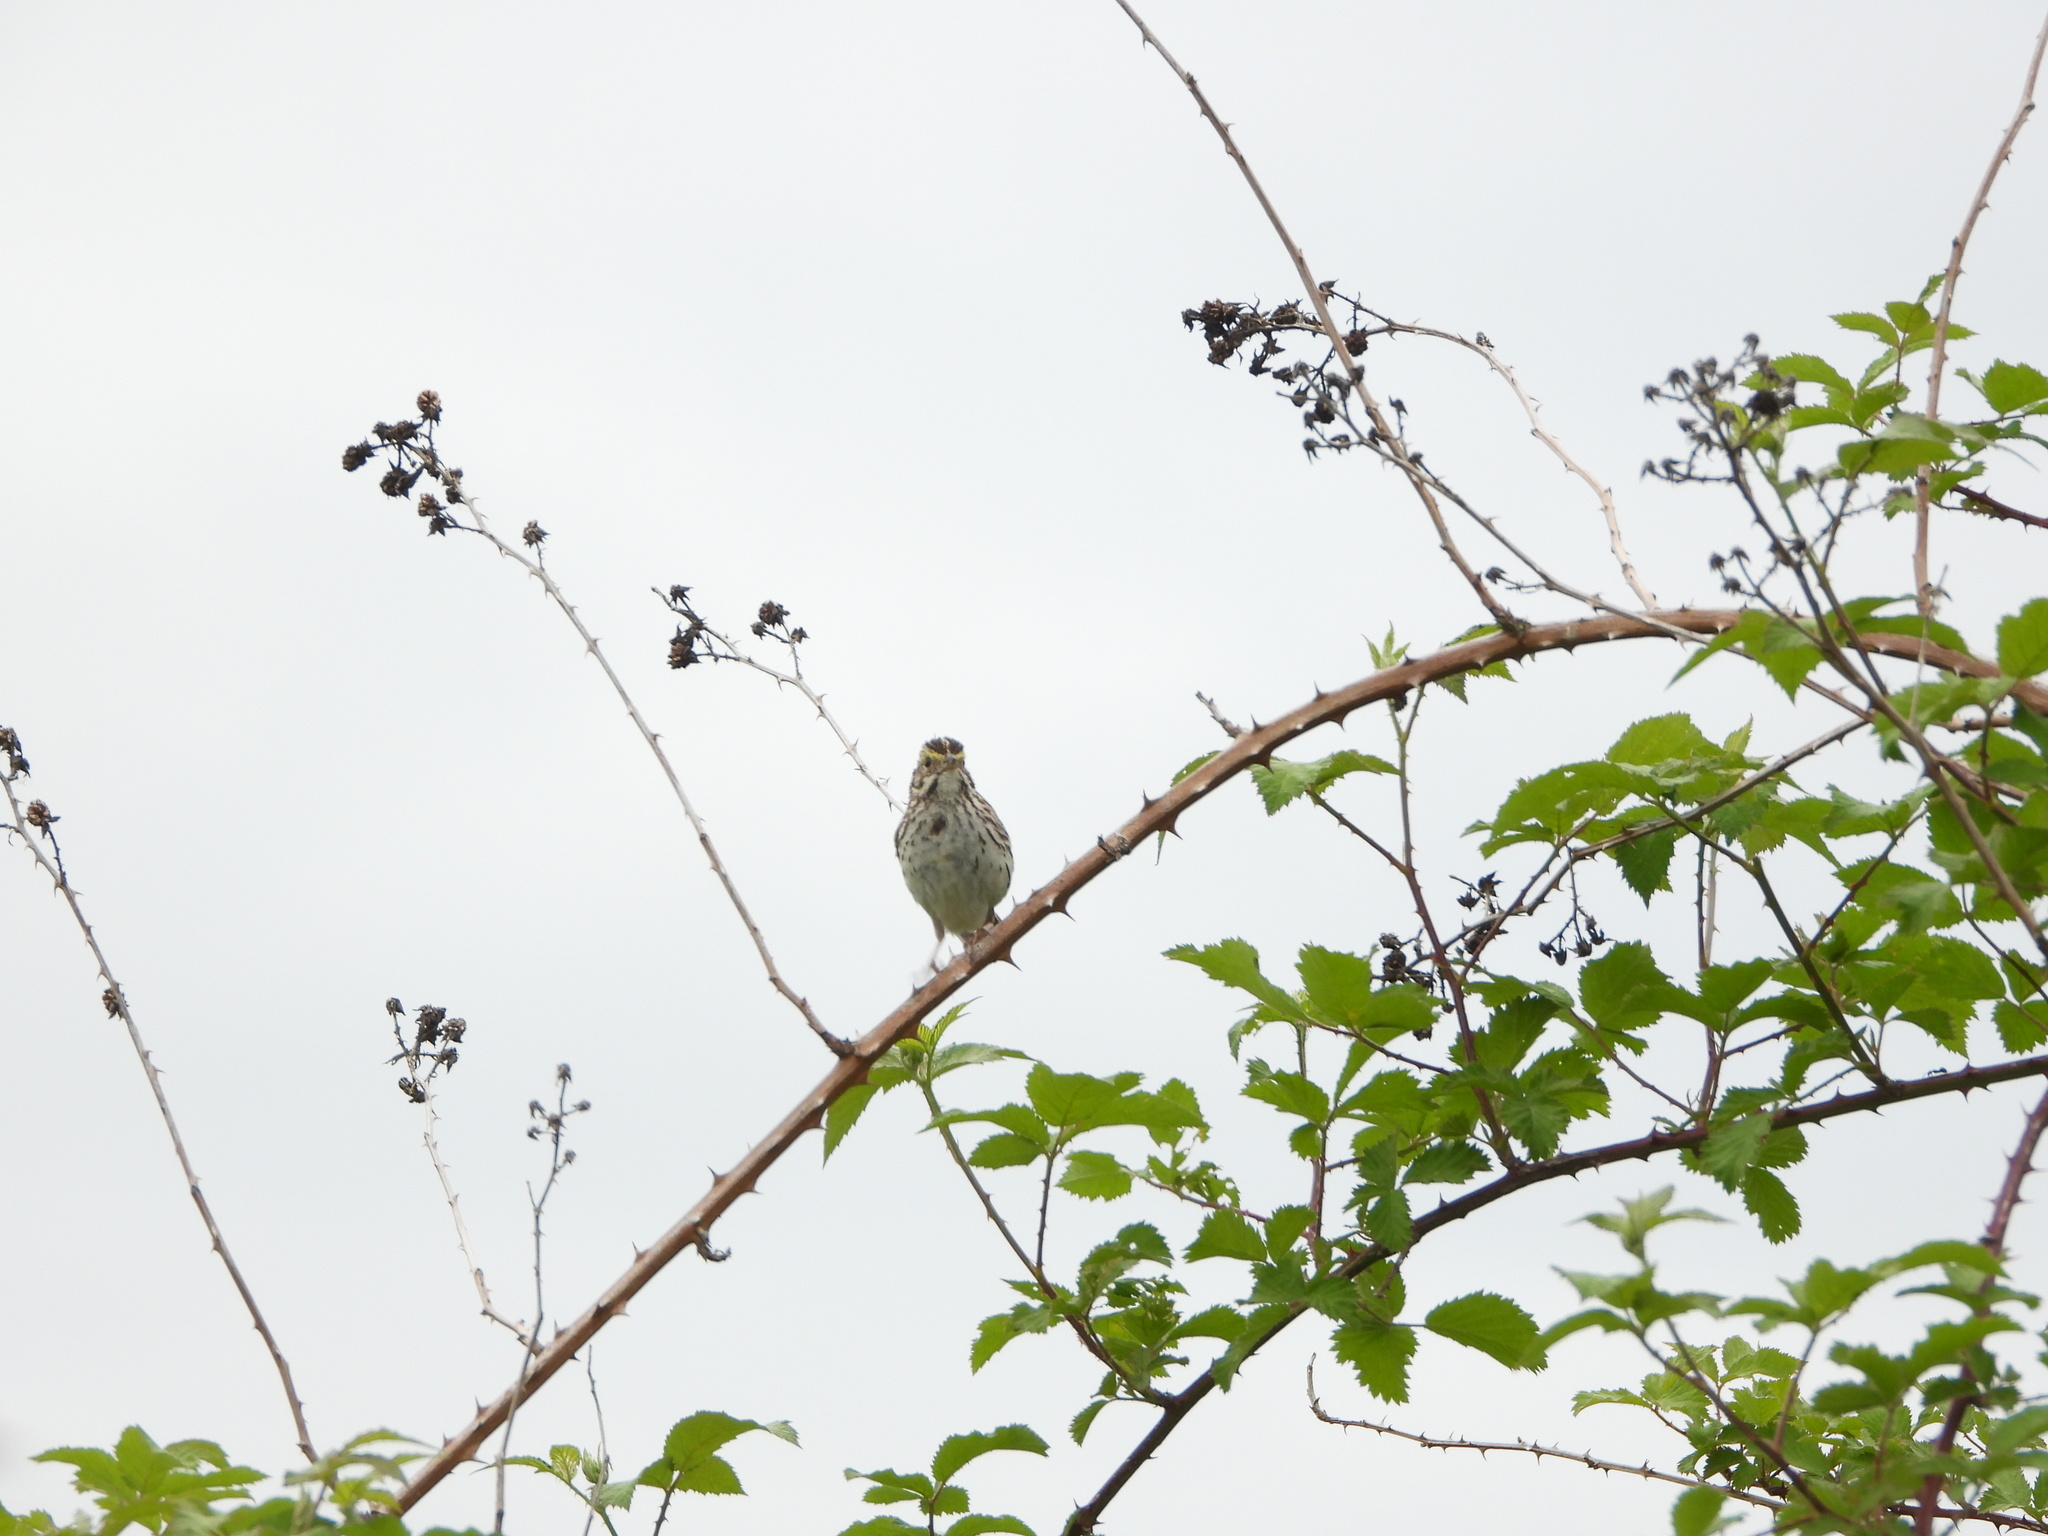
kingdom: Animalia
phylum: Chordata
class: Aves
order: Passeriformes
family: Passerellidae
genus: Passerculus
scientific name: Passerculus sandwichensis
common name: Savannah sparrow
